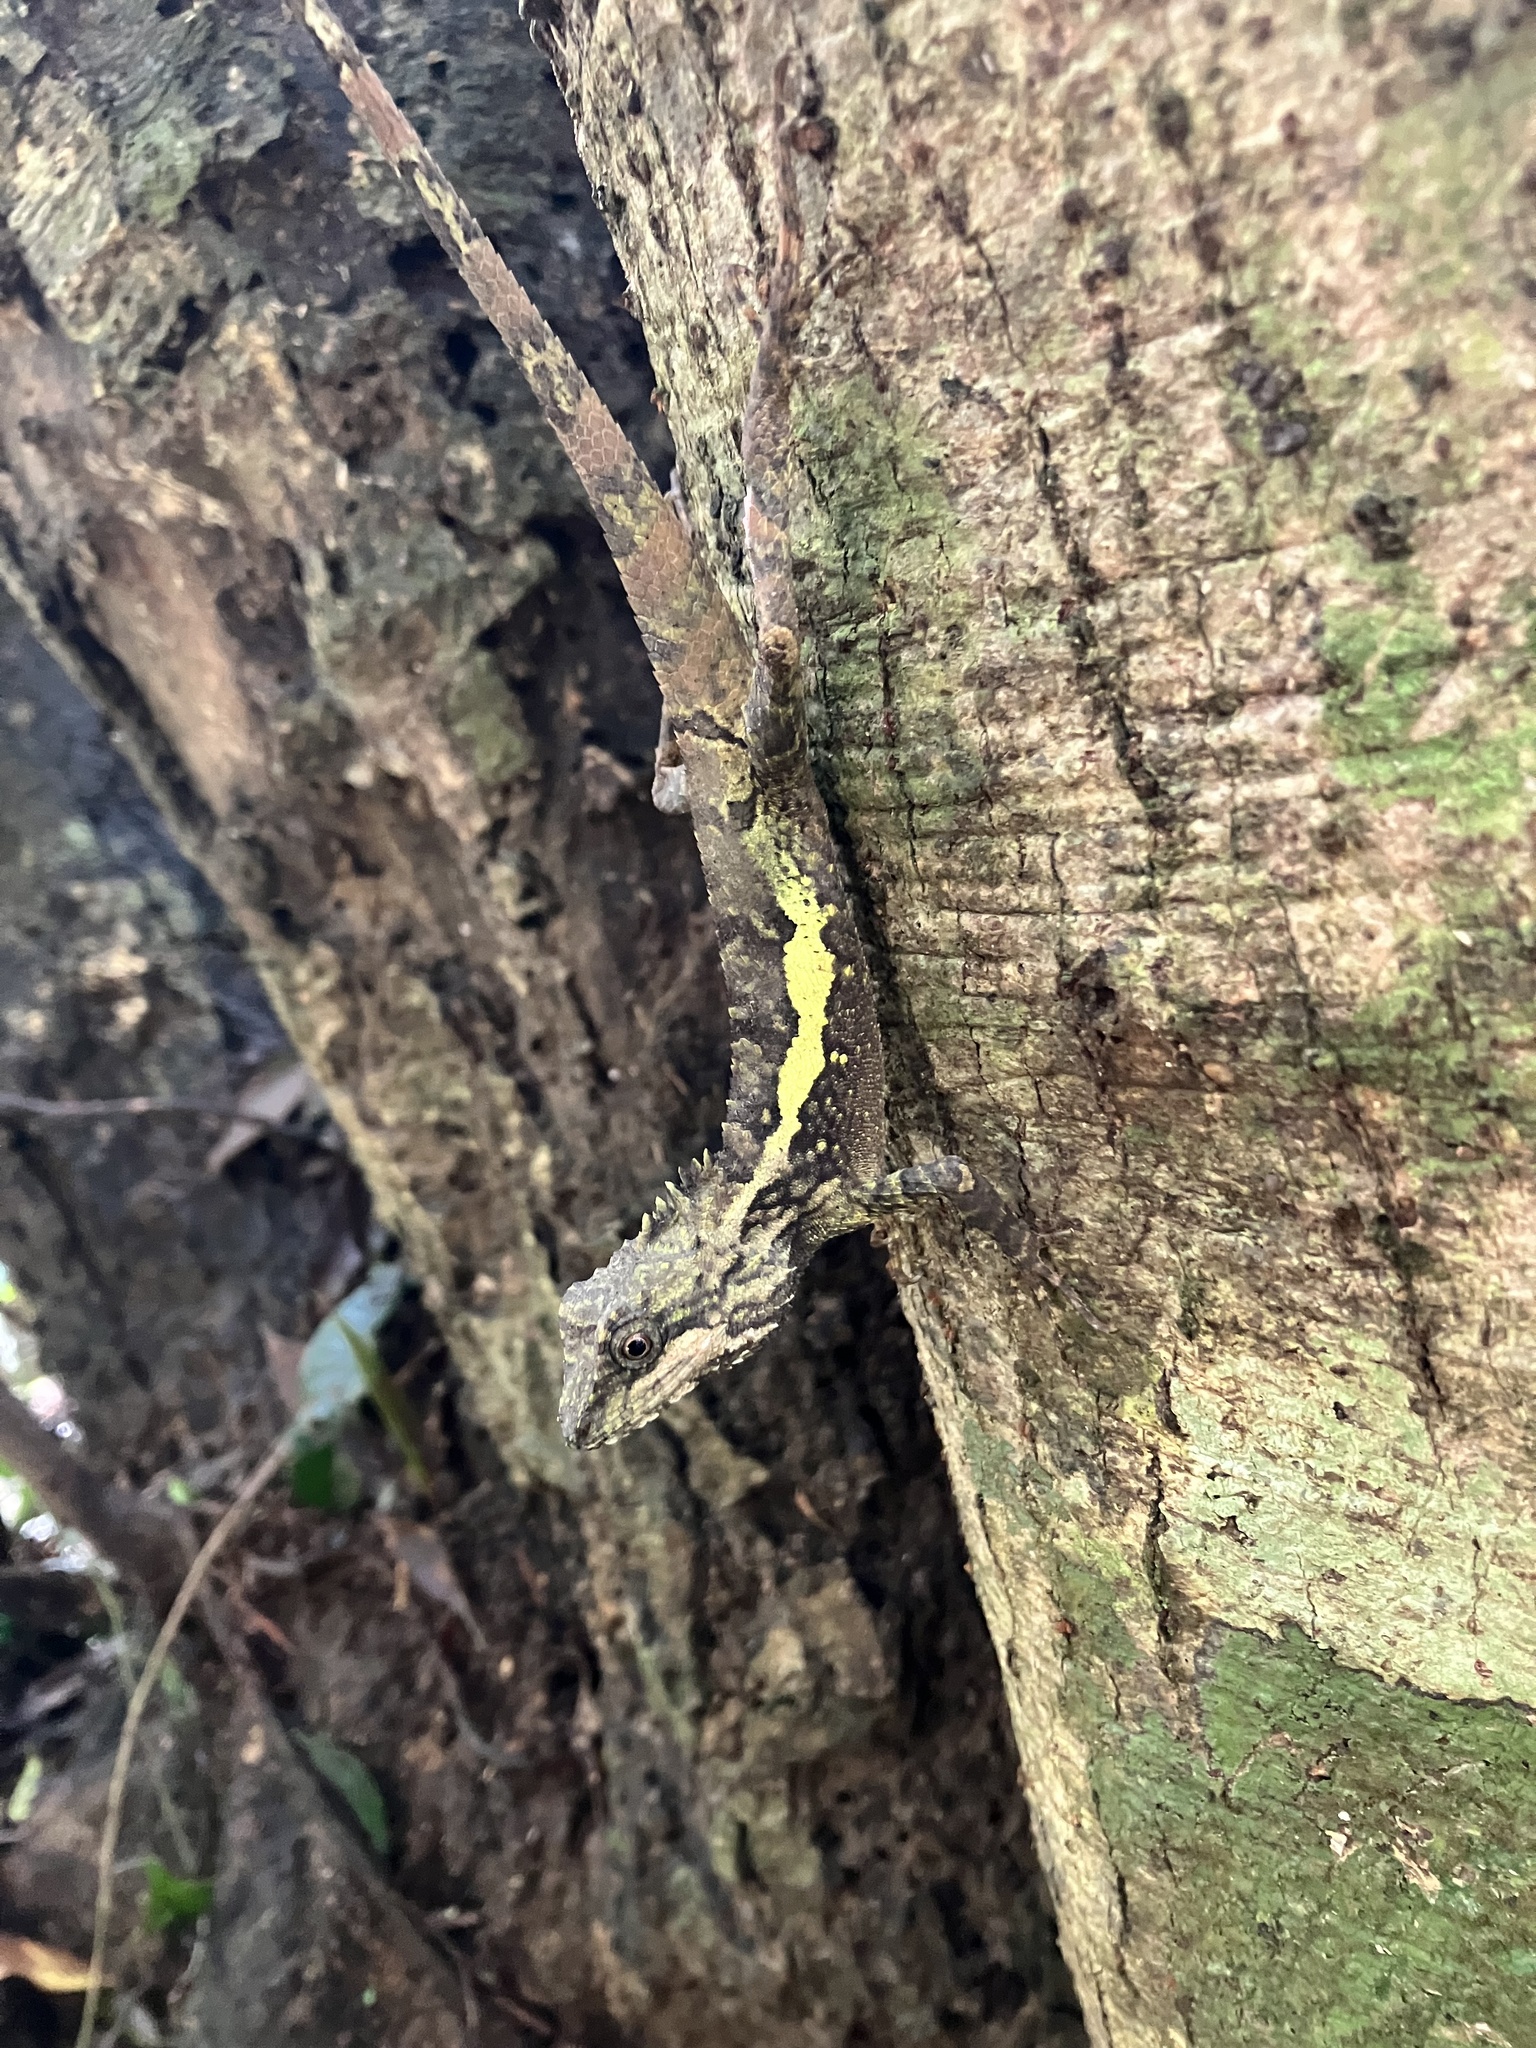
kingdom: Animalia
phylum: Chordata
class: Squamata
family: Agamidae
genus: Diploderma
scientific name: Diploderma swinhonis
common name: Taiwan japalure
